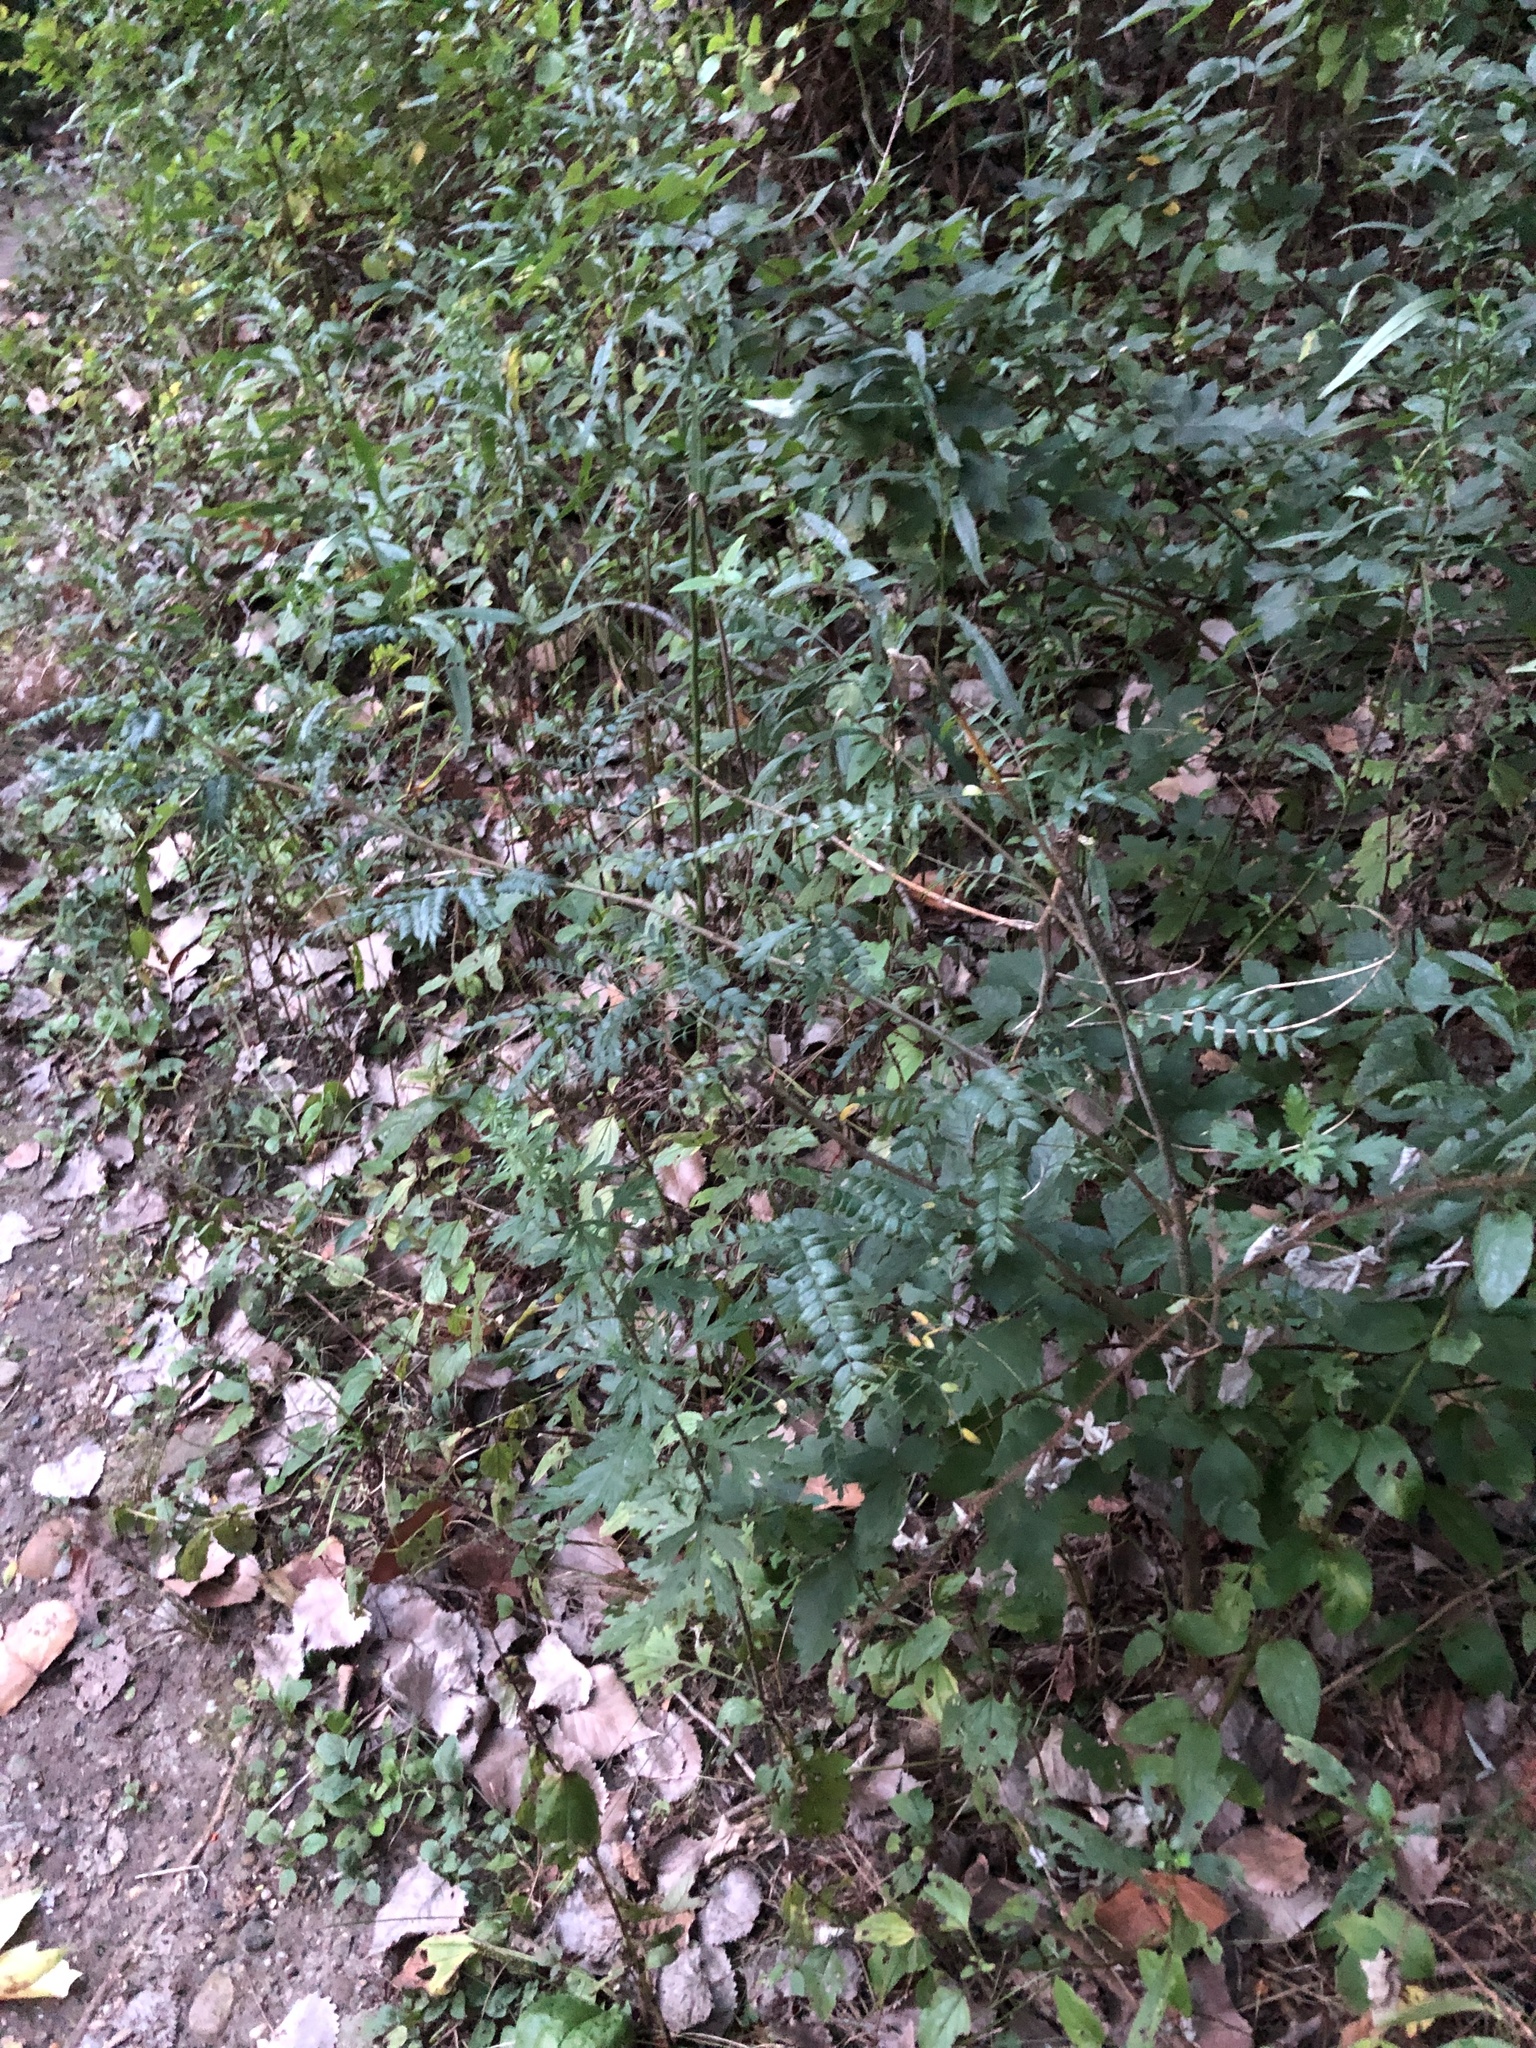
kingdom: Plantae
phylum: Tracheophyta
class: Magnoliopsida
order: Fabales
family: Fabaceae
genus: Gleditsia
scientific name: Gleditsia triacanthos
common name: Common honeylocust
